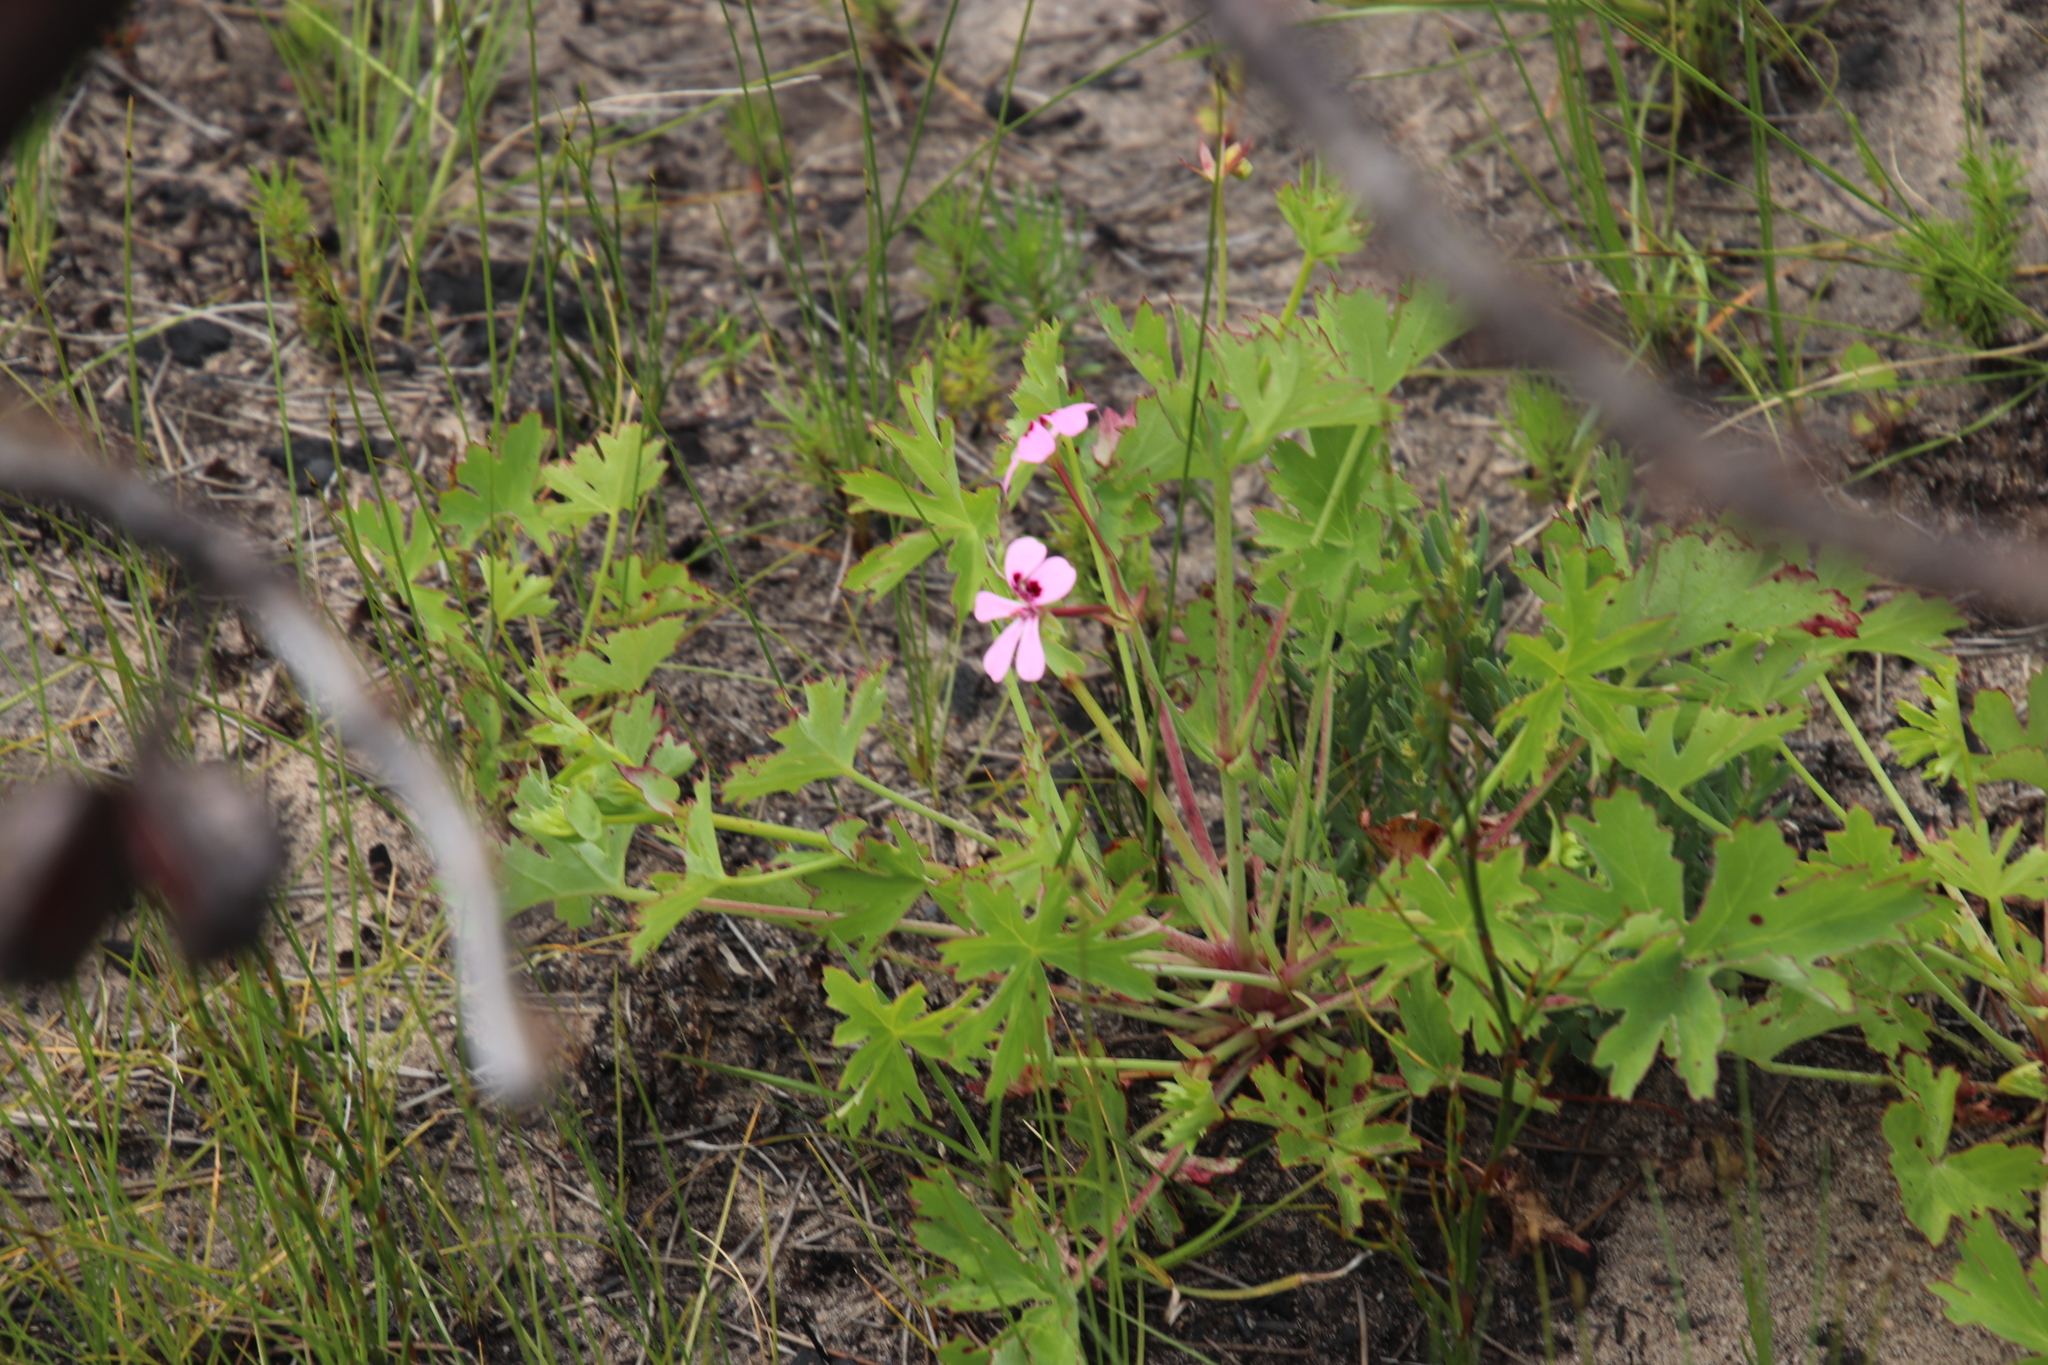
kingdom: Plantae
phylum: Tracheophyta
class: Magnoliopsida
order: Geraniales
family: Geraniaceae
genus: Pelargonium
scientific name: Pelargonium patulum
